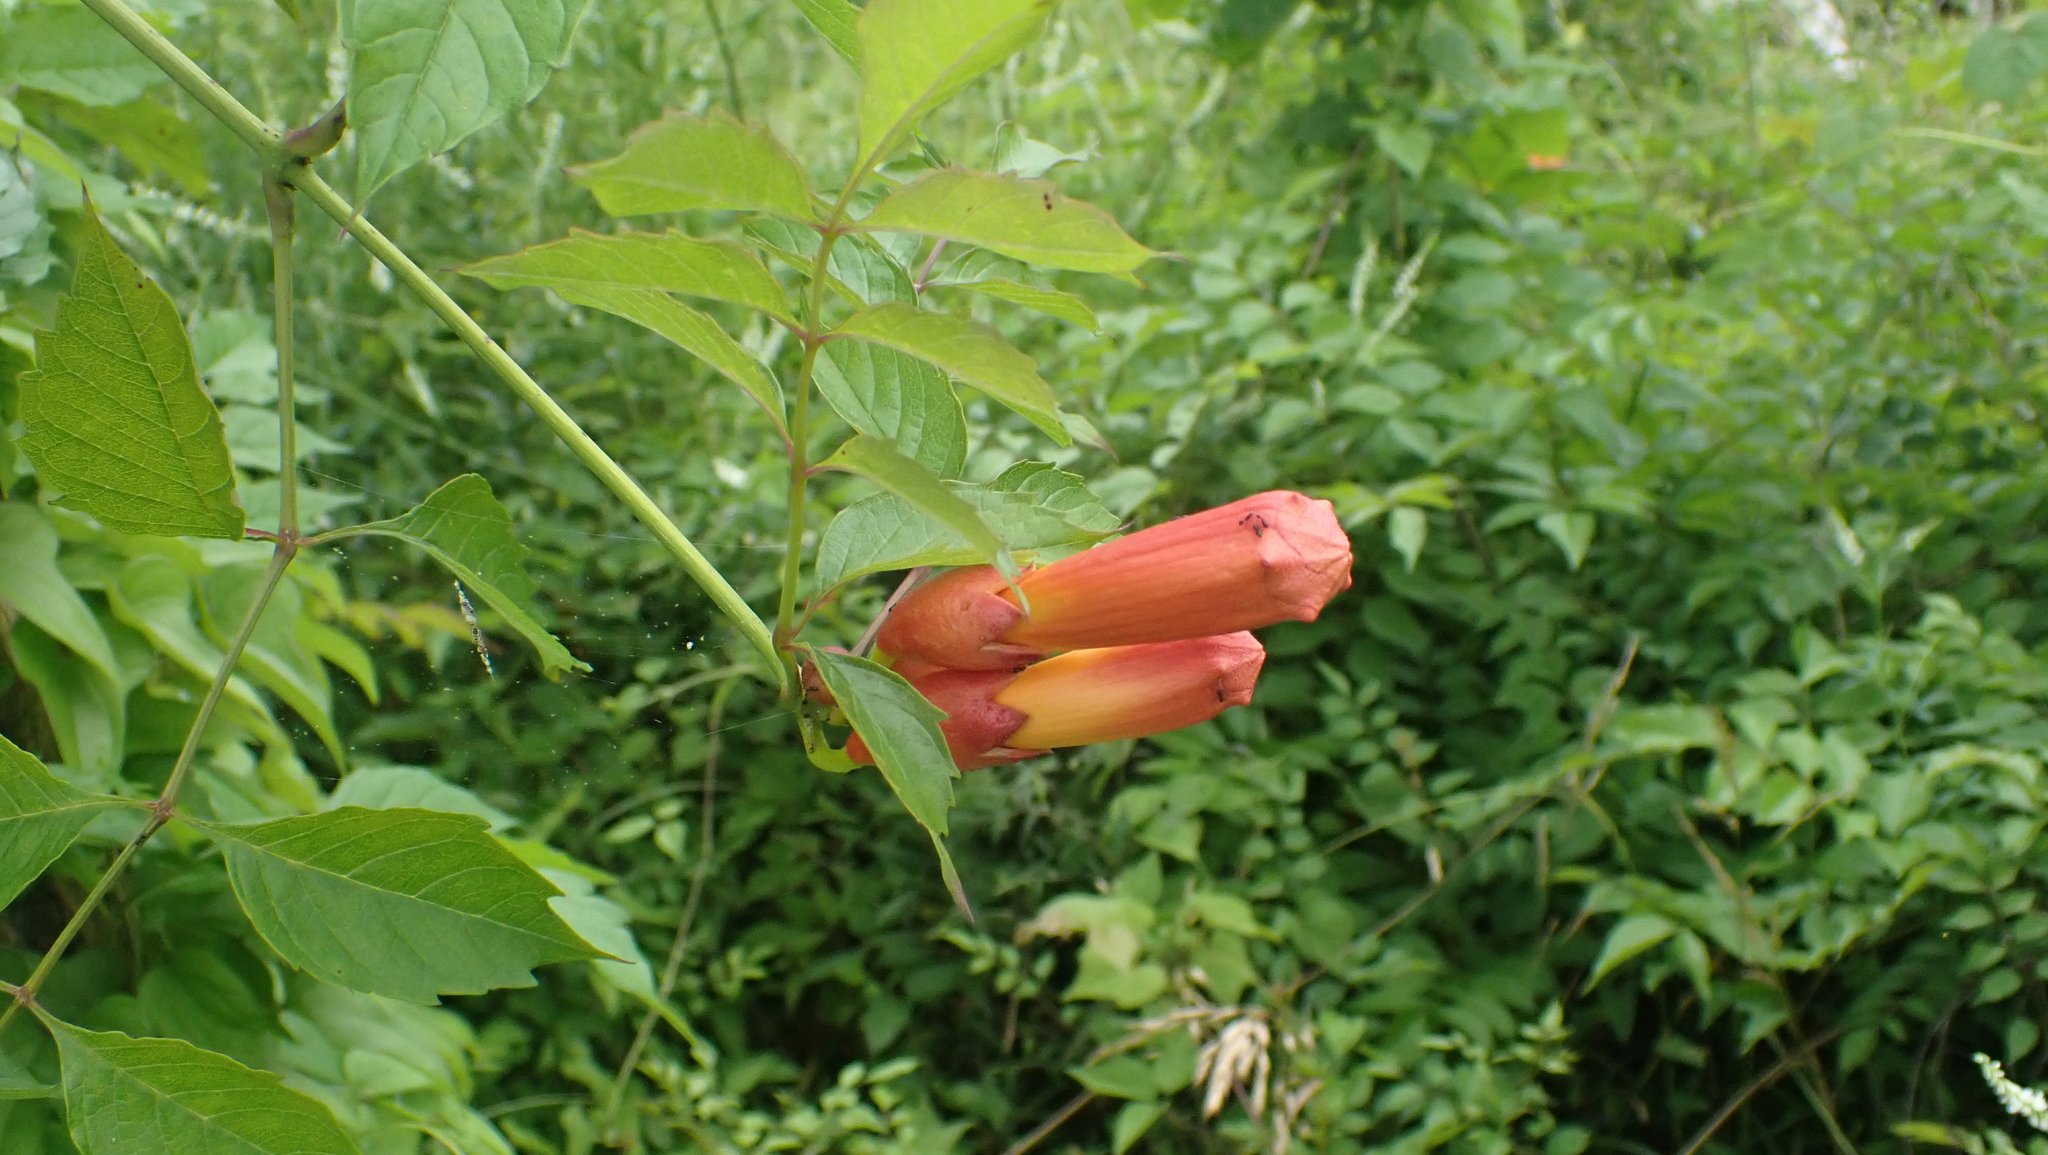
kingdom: Plantae
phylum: Tracheophyta
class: Magnoliopsida
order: Lamiales
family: Bignoniaceae
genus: Campsis
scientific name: Campsis radicans
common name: Trumpet-creeper
